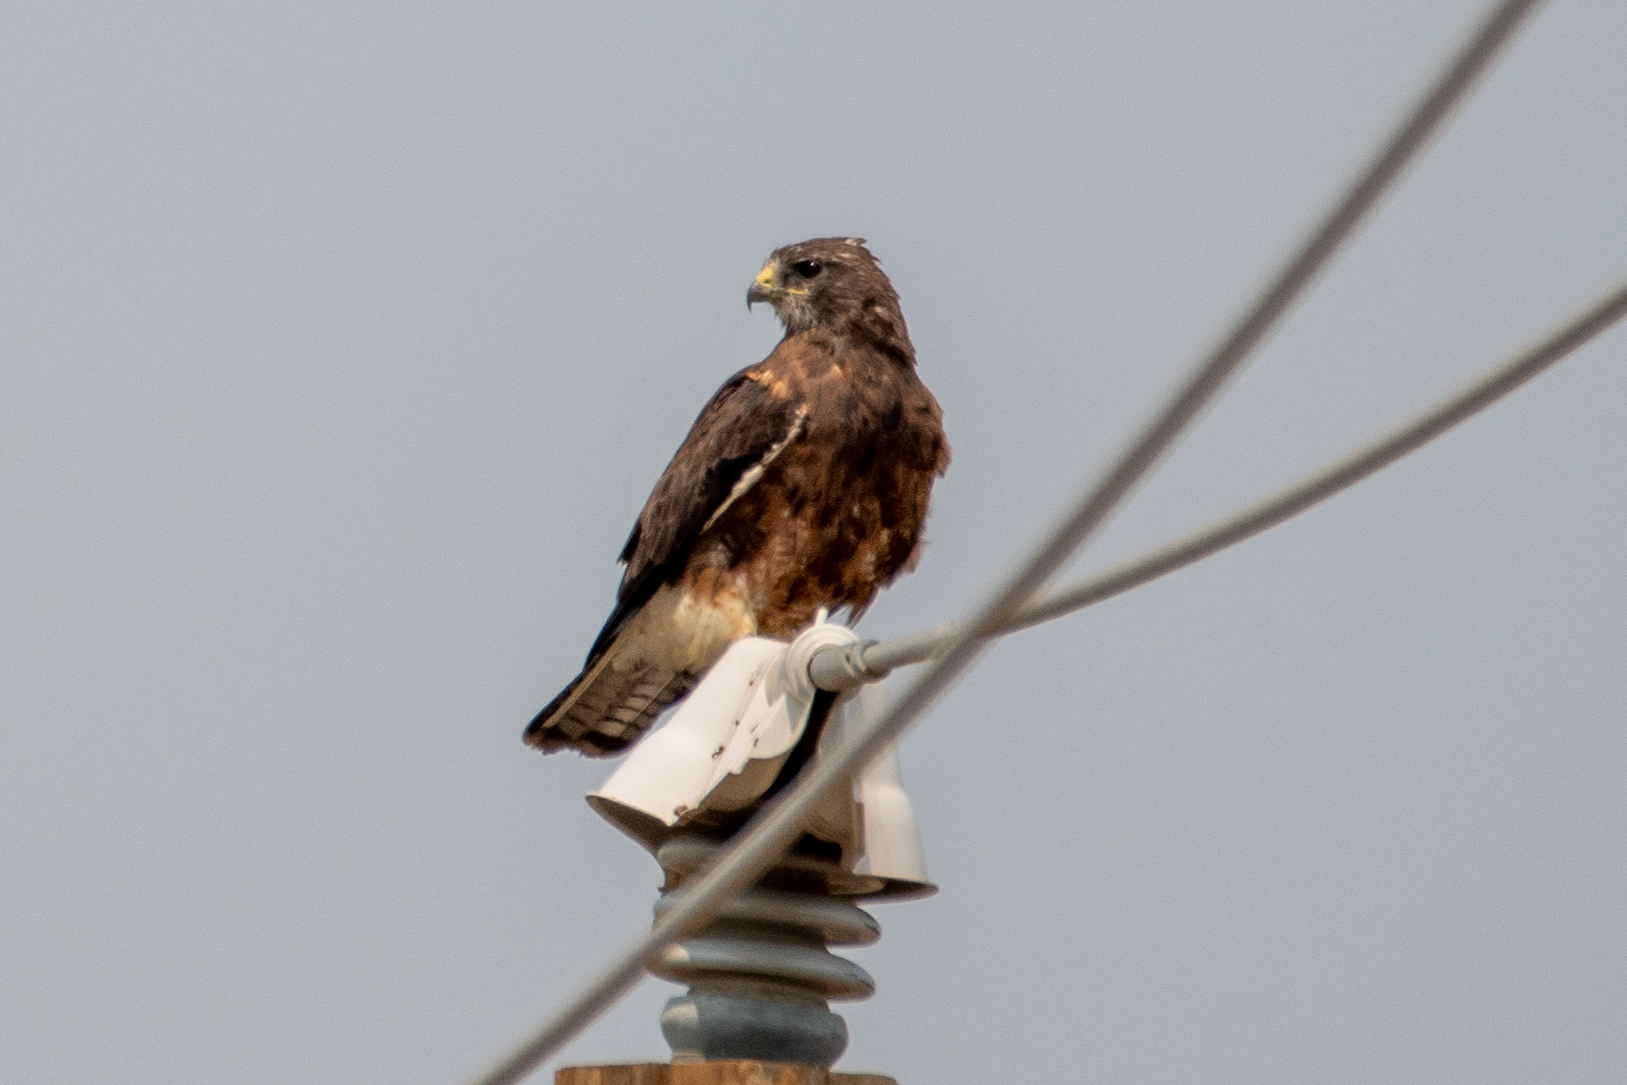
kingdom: Animalia
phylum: Chordata
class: Aves
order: Accipitriformes
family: Accipitridae
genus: Buteo
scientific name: Buteo jamaicensis
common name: Red-tailed hawk
